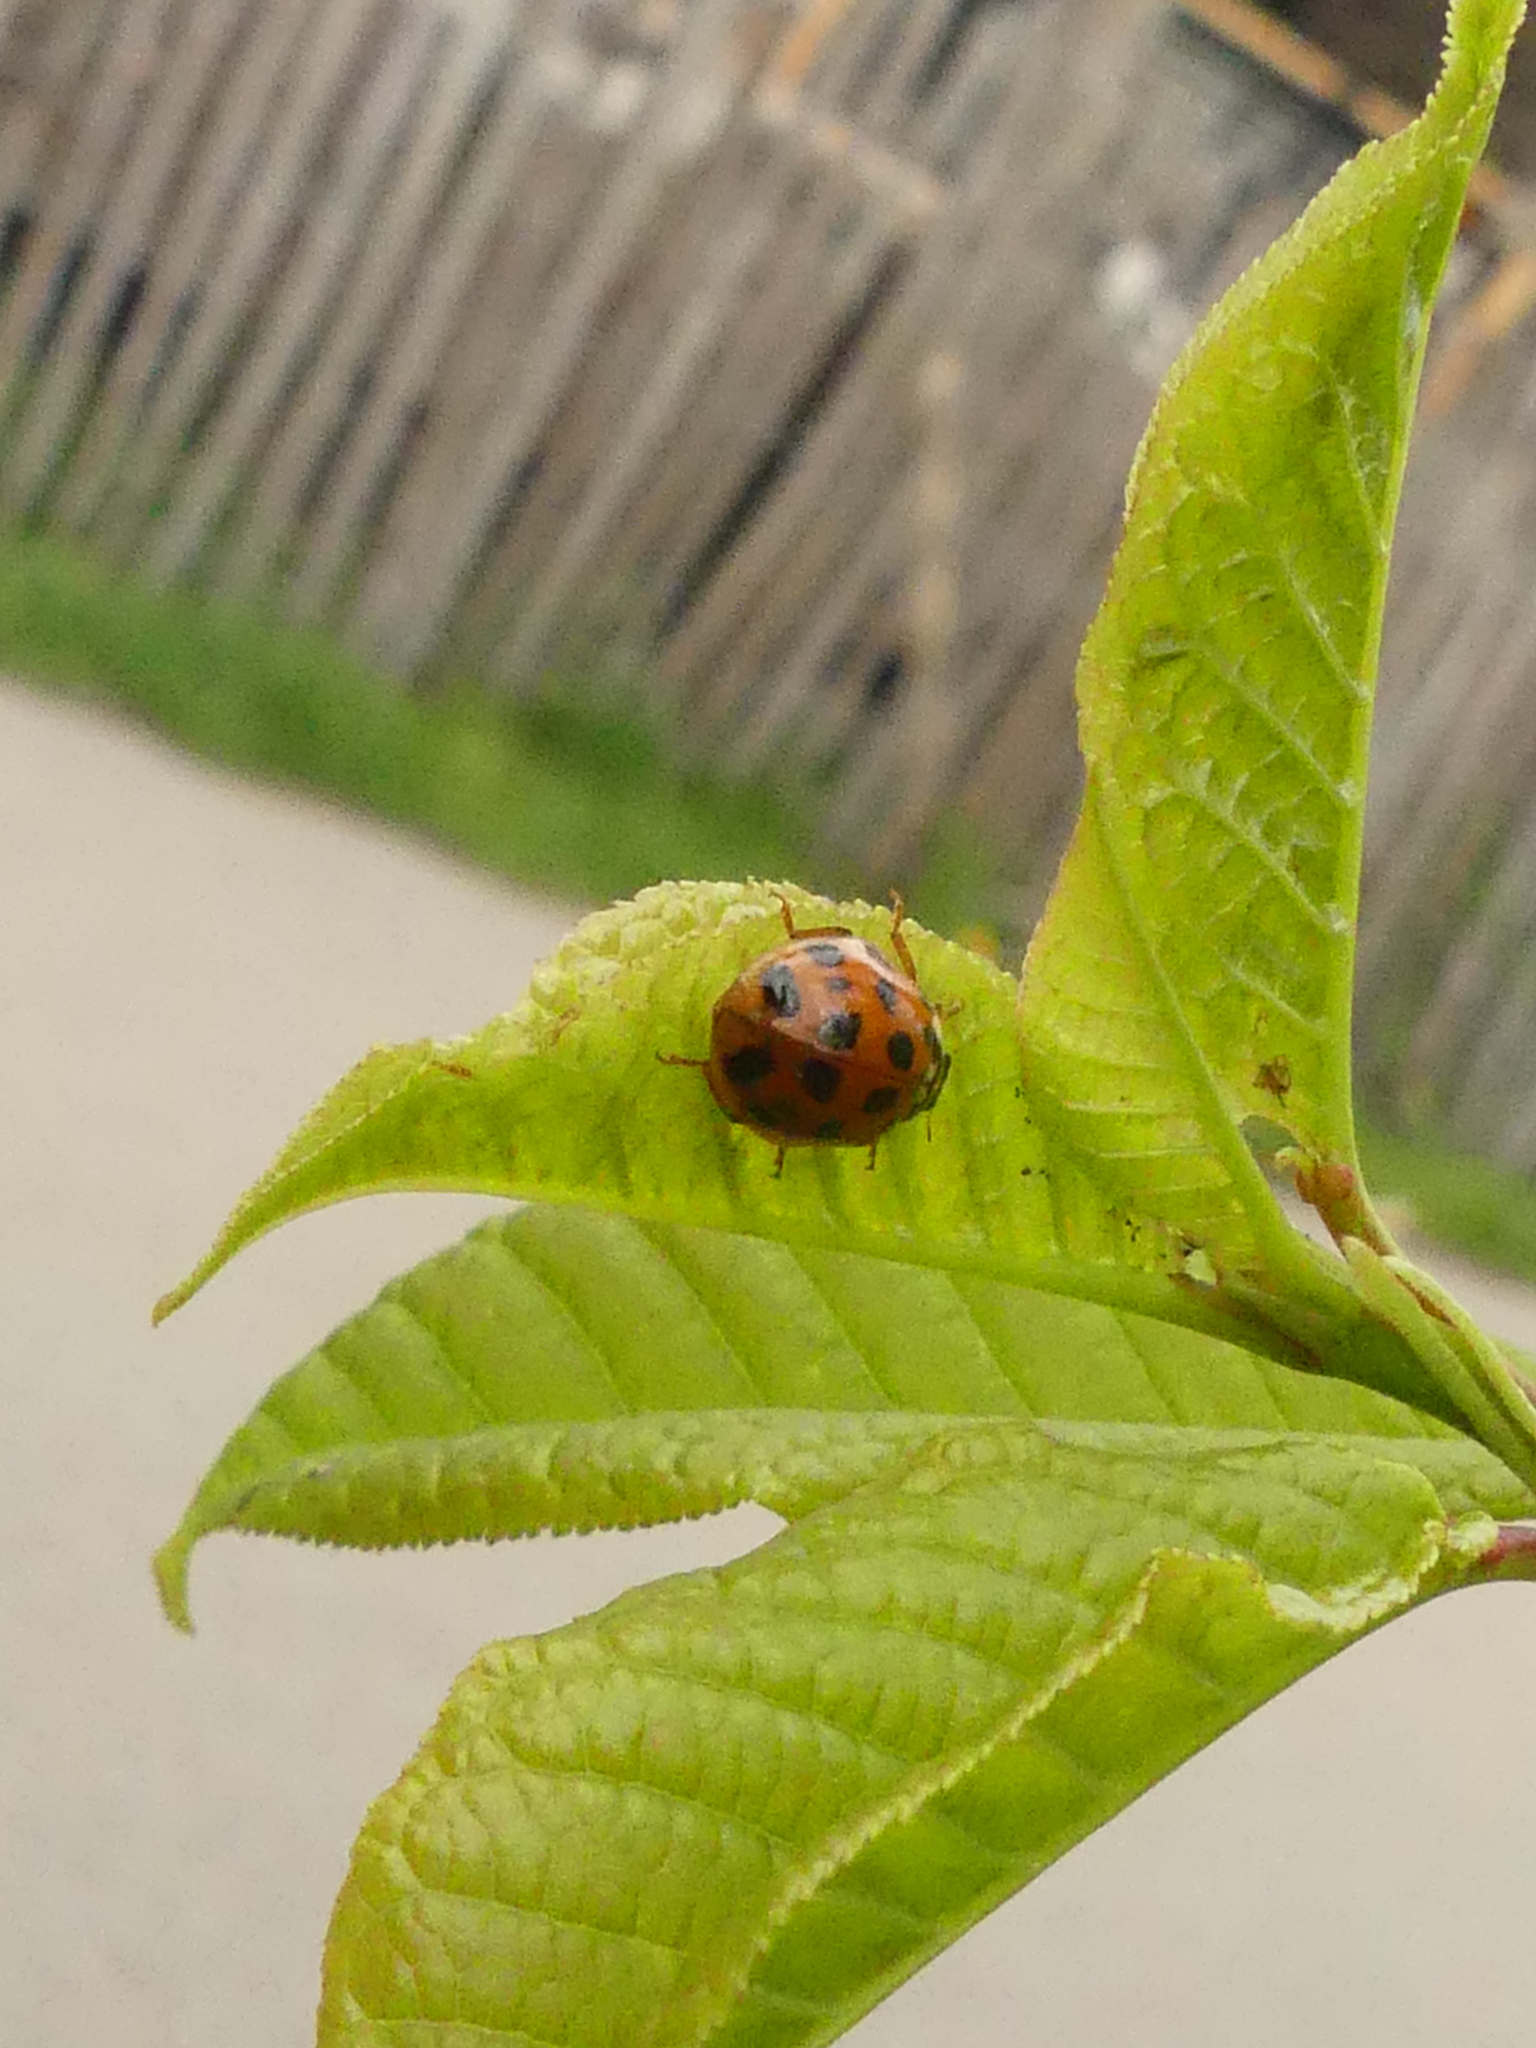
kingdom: Animalia
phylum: Arthropoda
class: Insecta
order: Coleoptera
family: Coccinellidae
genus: Harmonia
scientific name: Harmonia axyridis
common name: Harlequin ladybird
